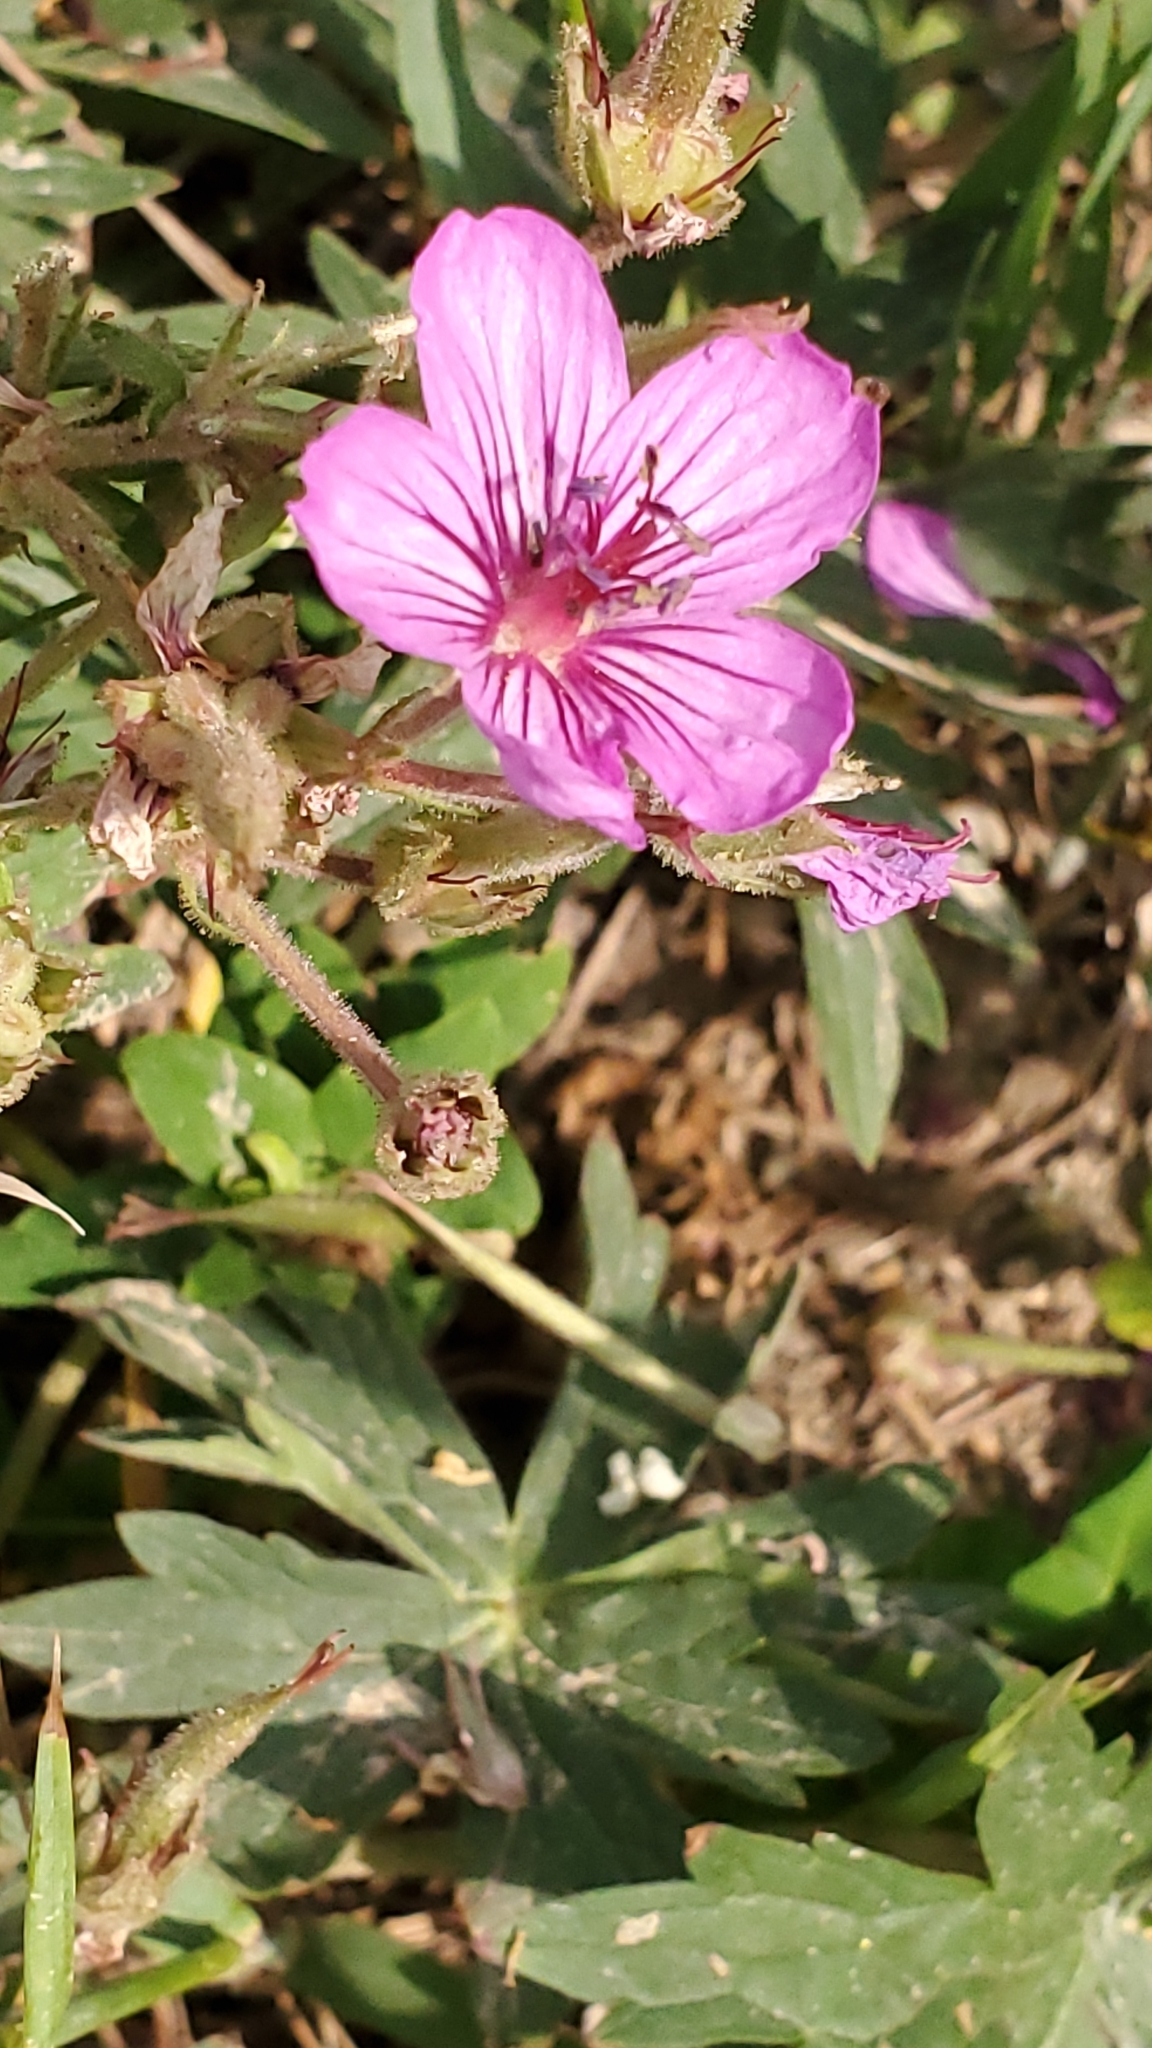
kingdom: Plantae
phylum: Tracheophyta
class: Magnoliopsida
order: Geraniales
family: Geraniaceae
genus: Geranium
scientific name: Geranium viscosissimum
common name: Purple geranium
